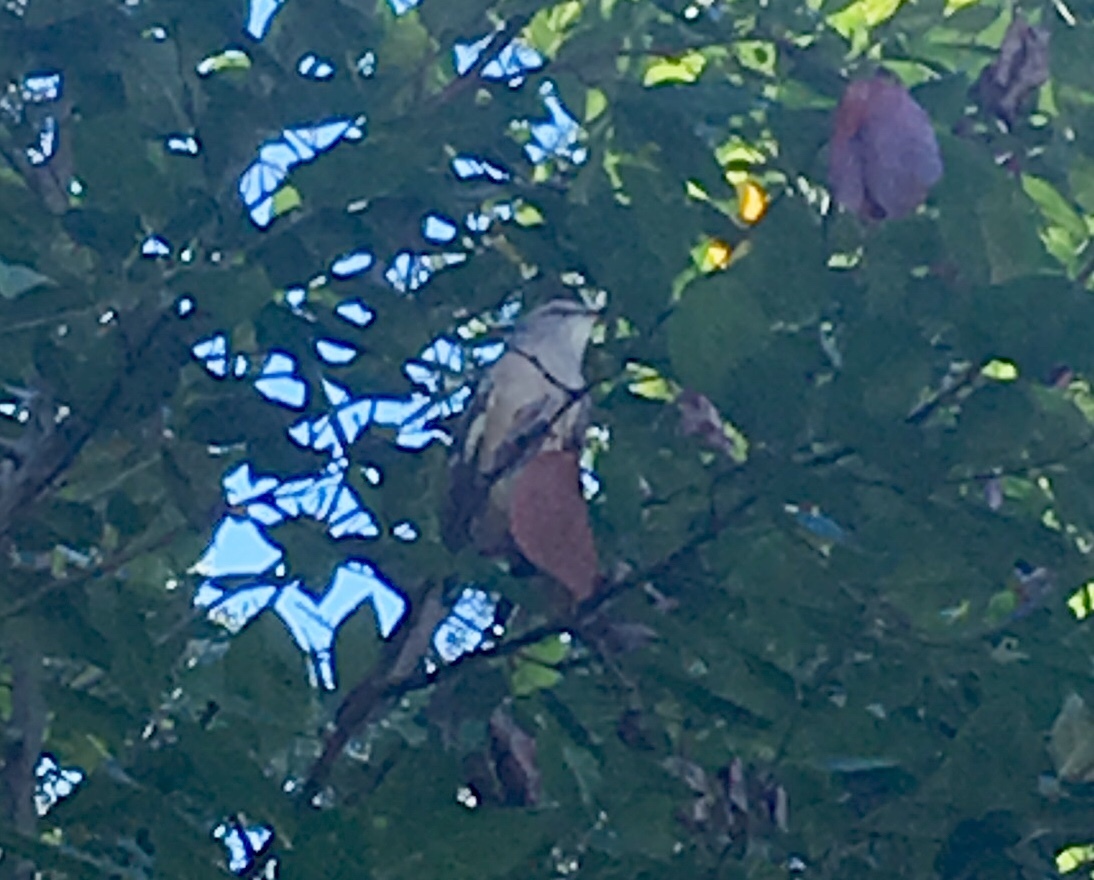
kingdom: Animalia
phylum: Chordata
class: Aves
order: Passeriformes
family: Mimidae
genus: Mimus
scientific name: Mimus polyglottos
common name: Northern mockingbird
